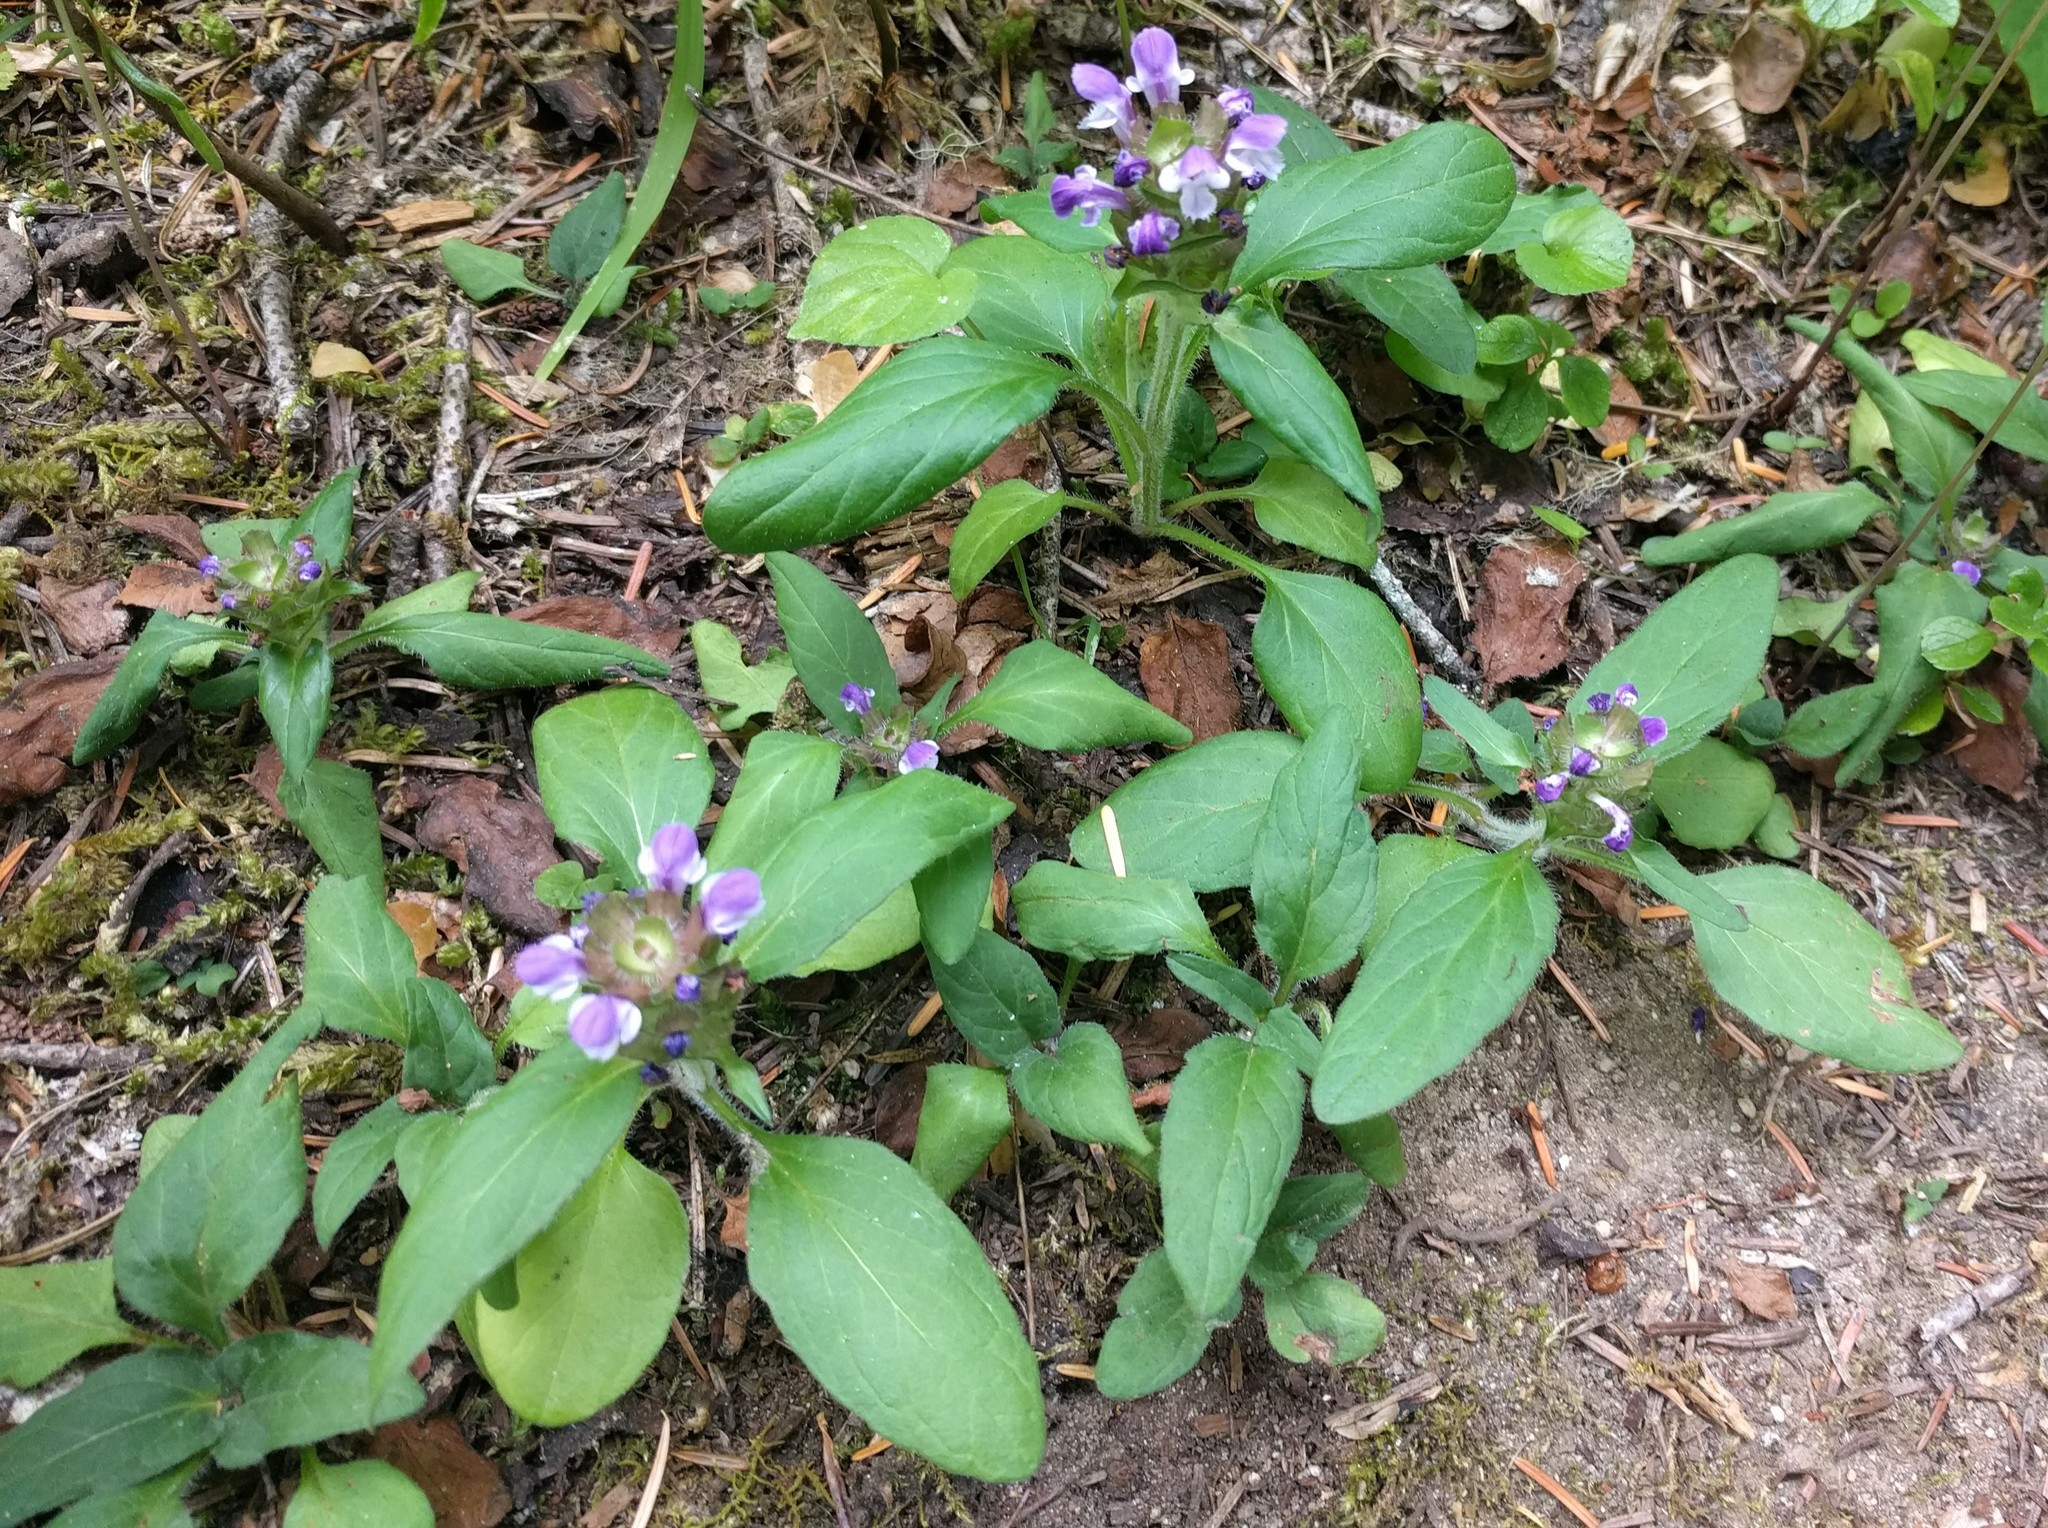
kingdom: Plantae
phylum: Tracheophyta
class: Magnoliopsida
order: Lamiales
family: Lamiaceae
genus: Prunella
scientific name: Prunella vulgaris
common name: Heal-all
